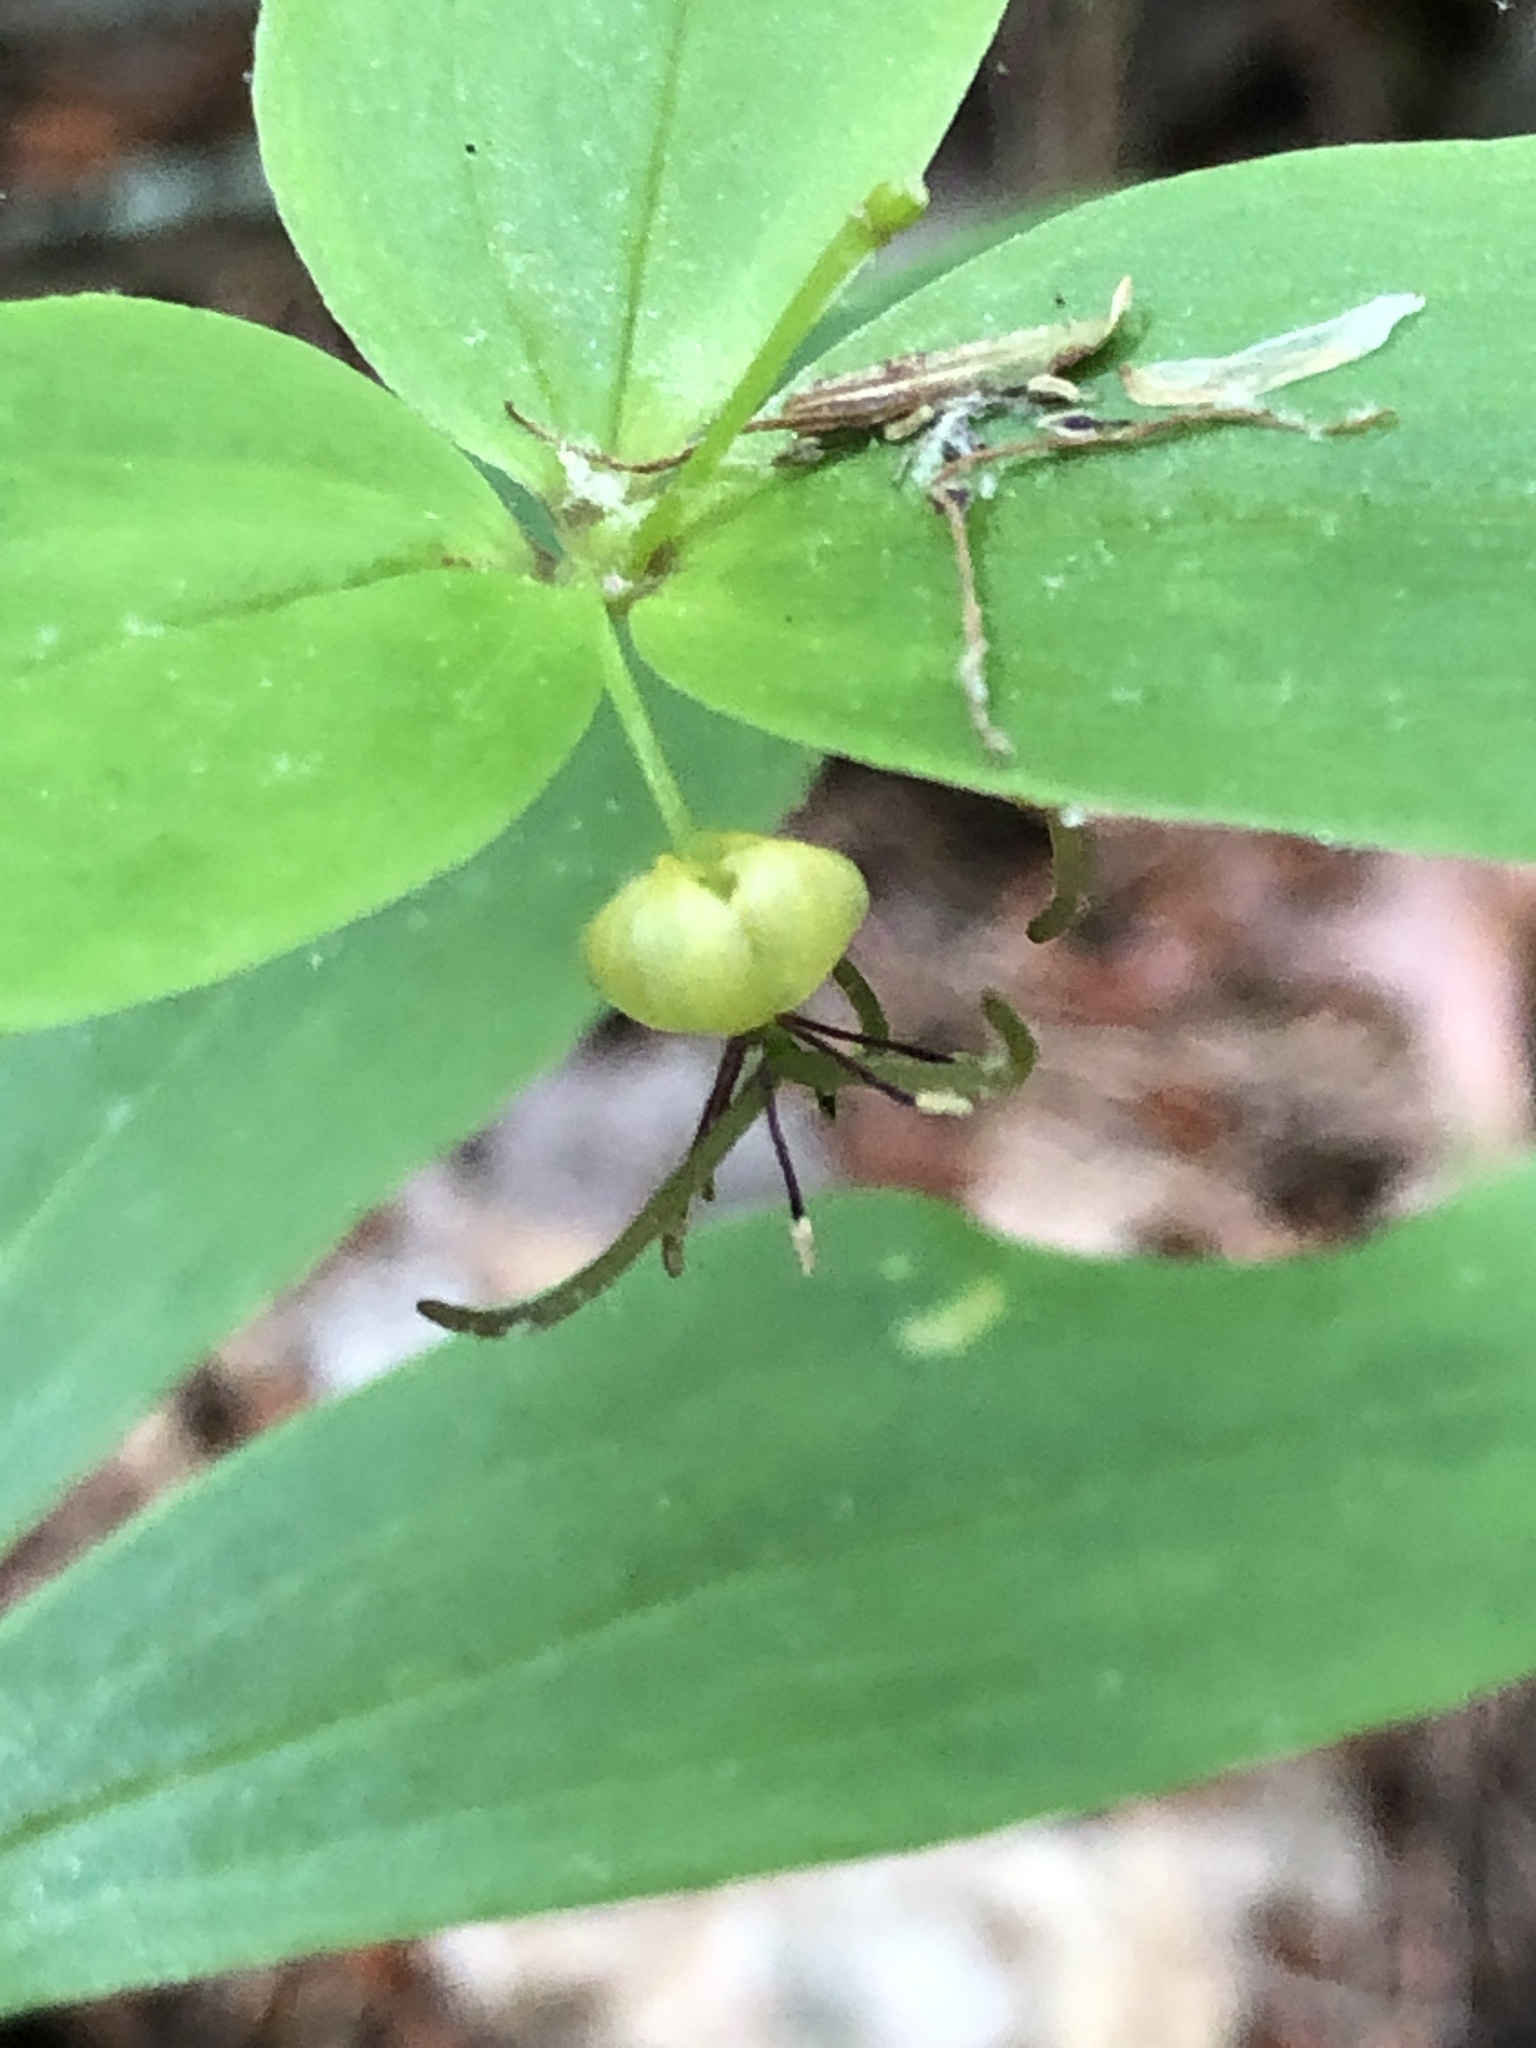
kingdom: Plantae
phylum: Tracheophyta
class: Liliopsida
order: Liliales
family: Liliaceae
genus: Medeola
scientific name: Medeola virginiana
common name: Indian cucumber-root
